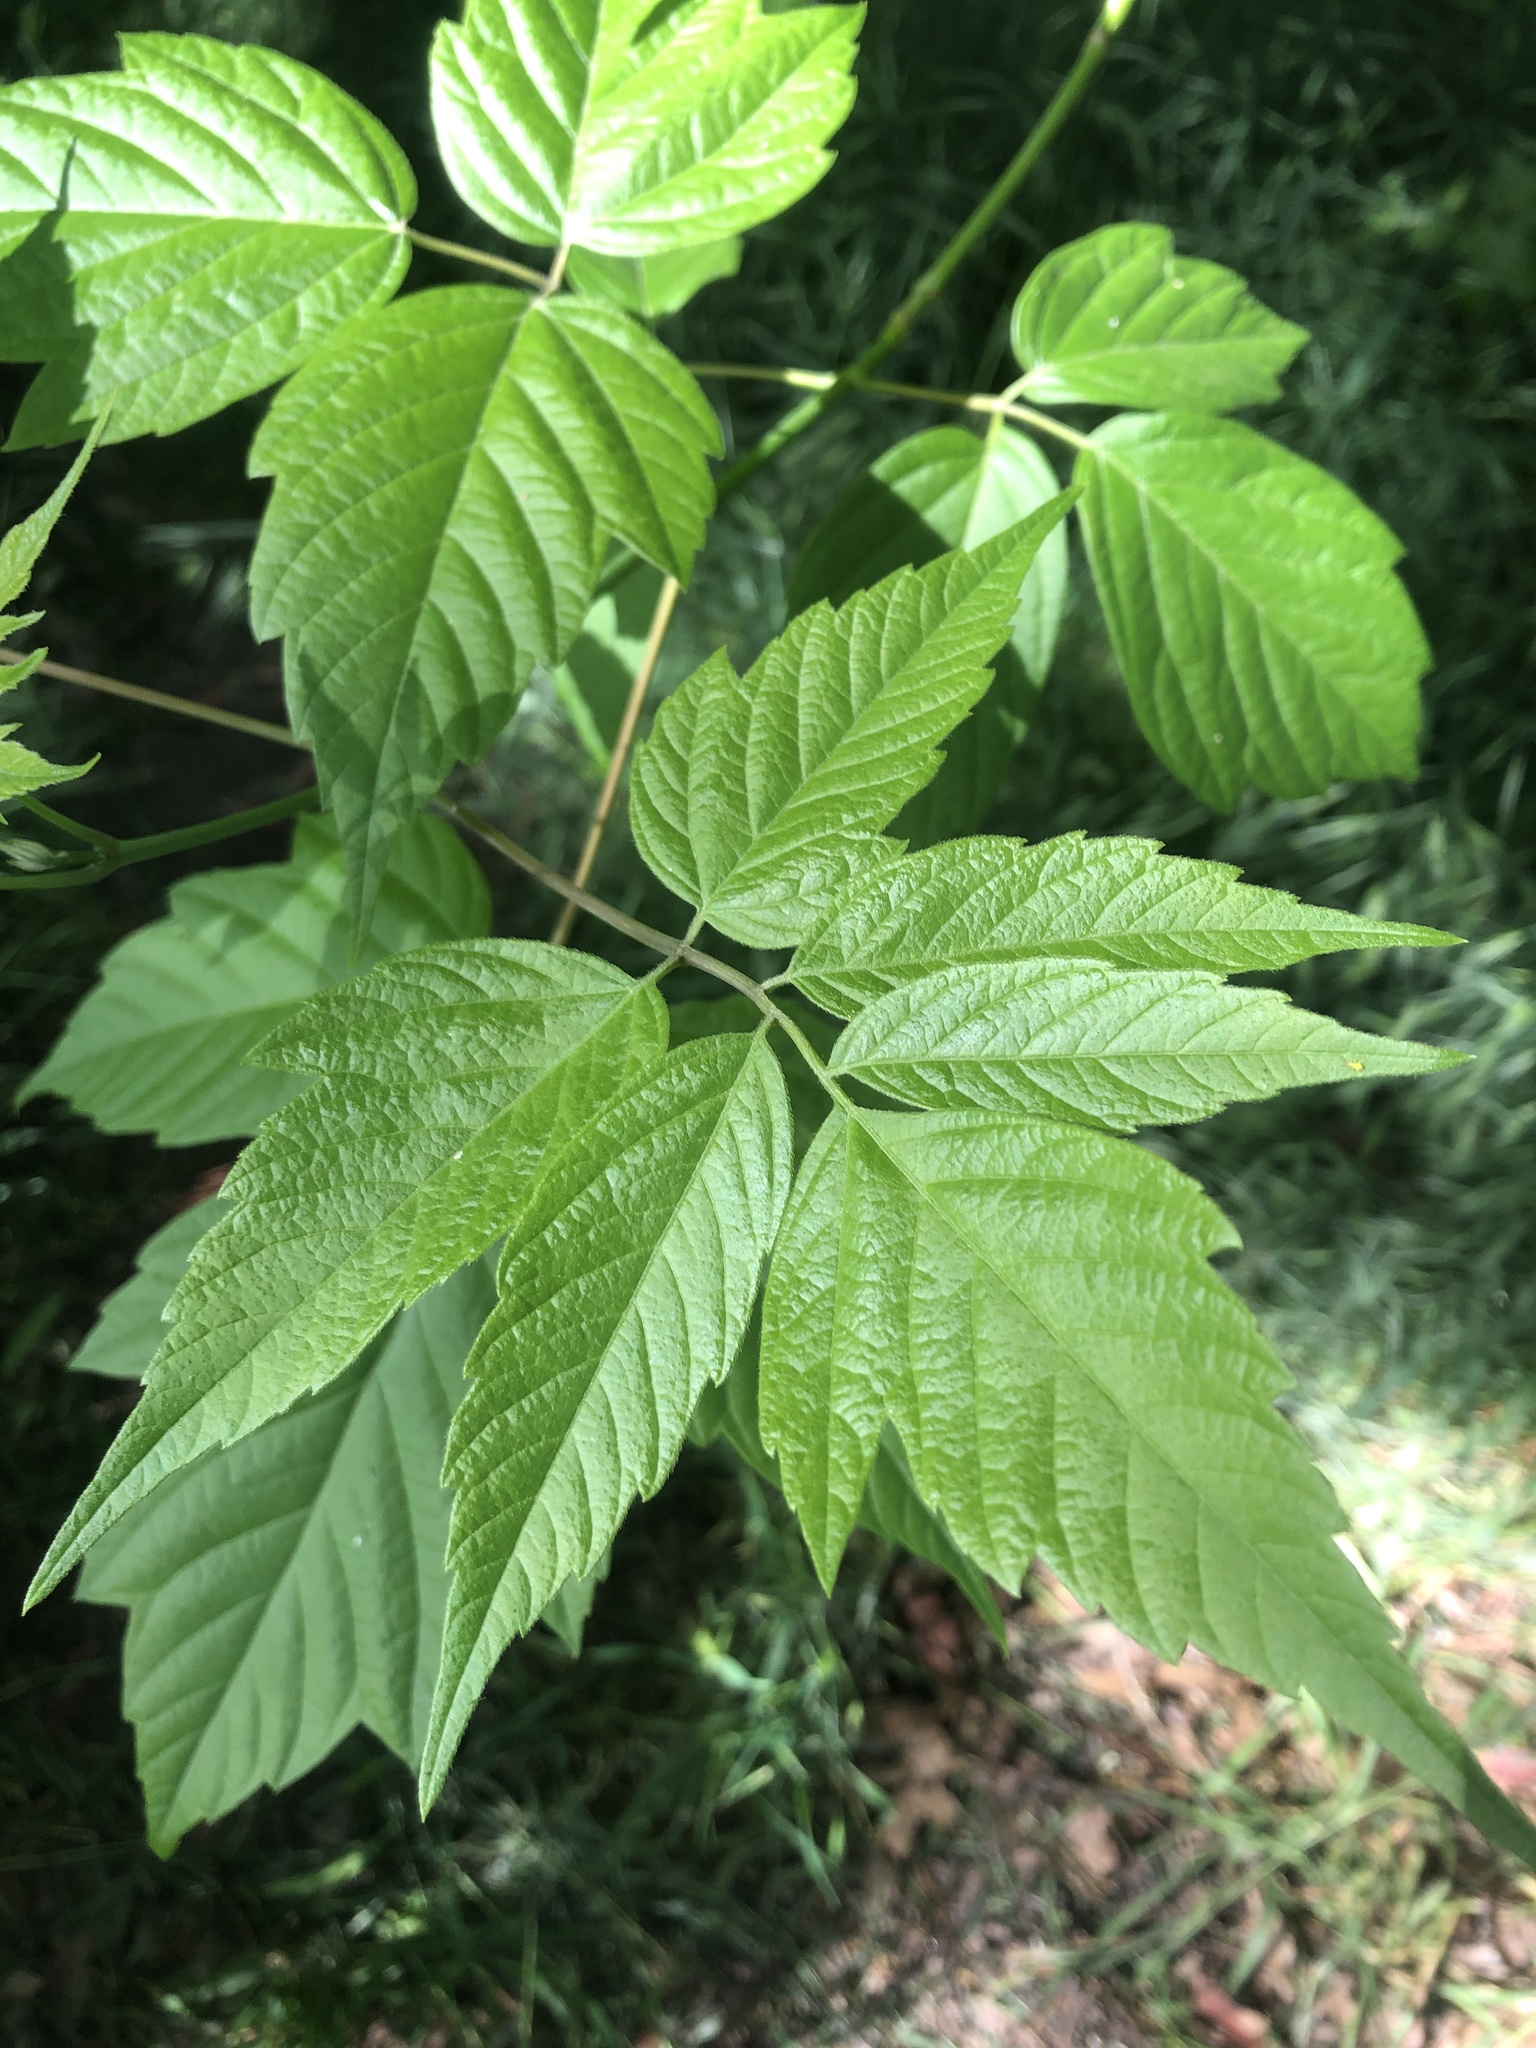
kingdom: Plantae
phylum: Tracheophyta
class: Magnoliopsida
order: Sapindales
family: Sapindaceae
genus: Acer
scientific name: Acer negundo
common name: Ashleaf maple
